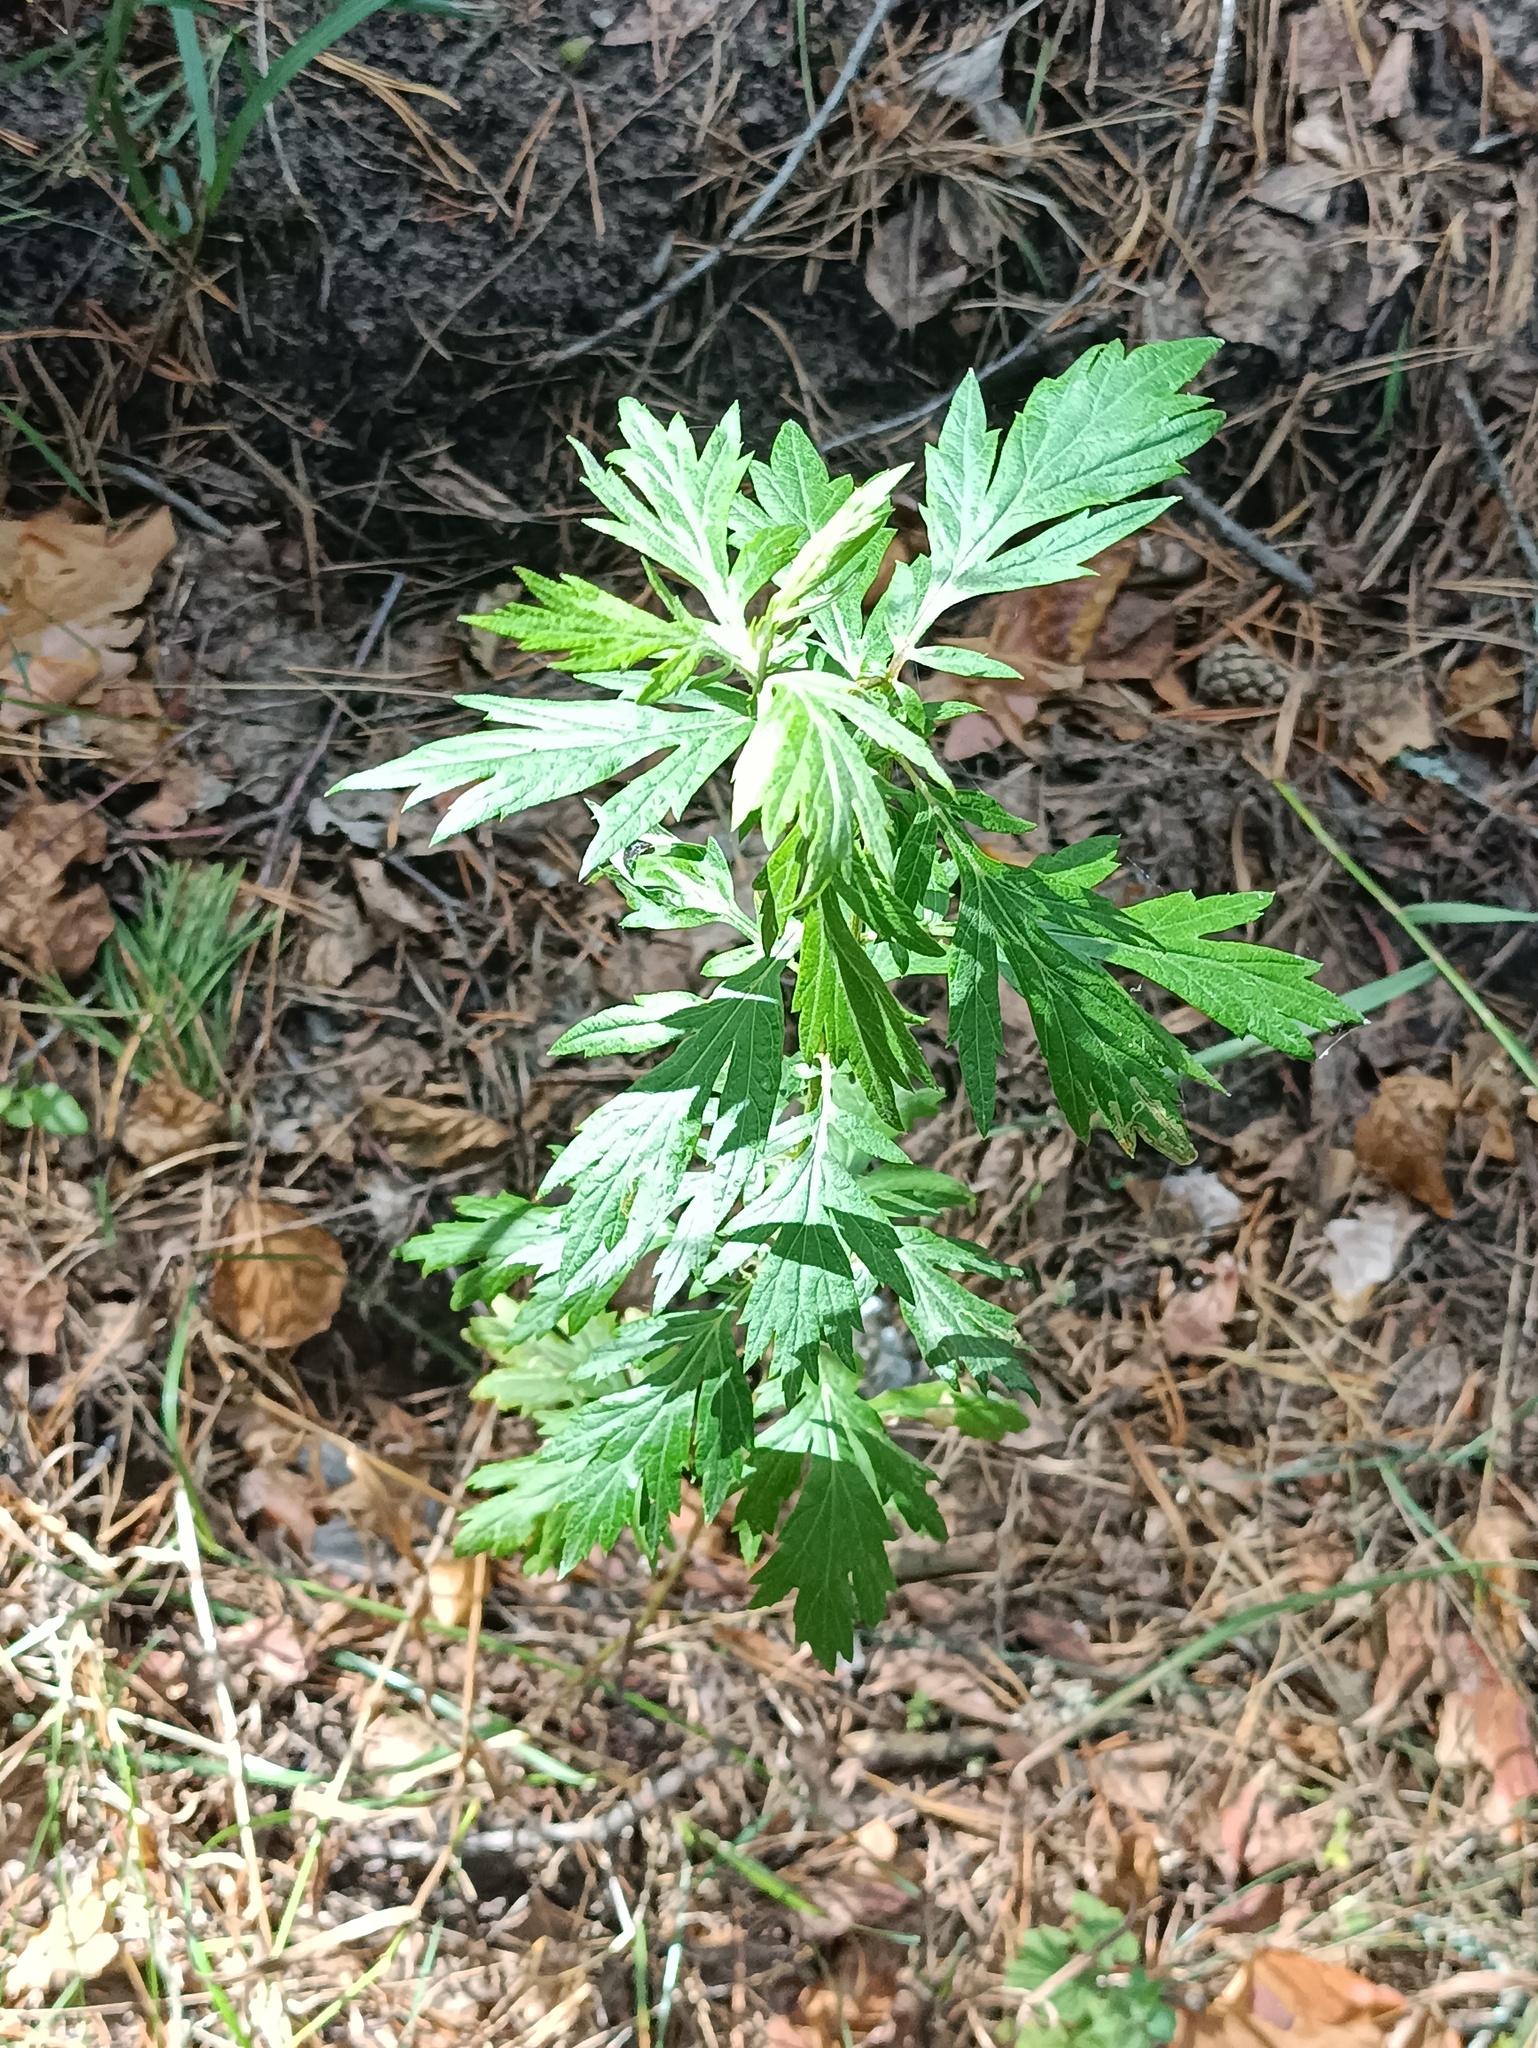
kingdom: Plantae
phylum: Tracheophyta
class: Magnoliopsida
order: Asterales
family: Asteraceae
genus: Artemisia
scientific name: Artemisia vulgaris
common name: Mugwort
